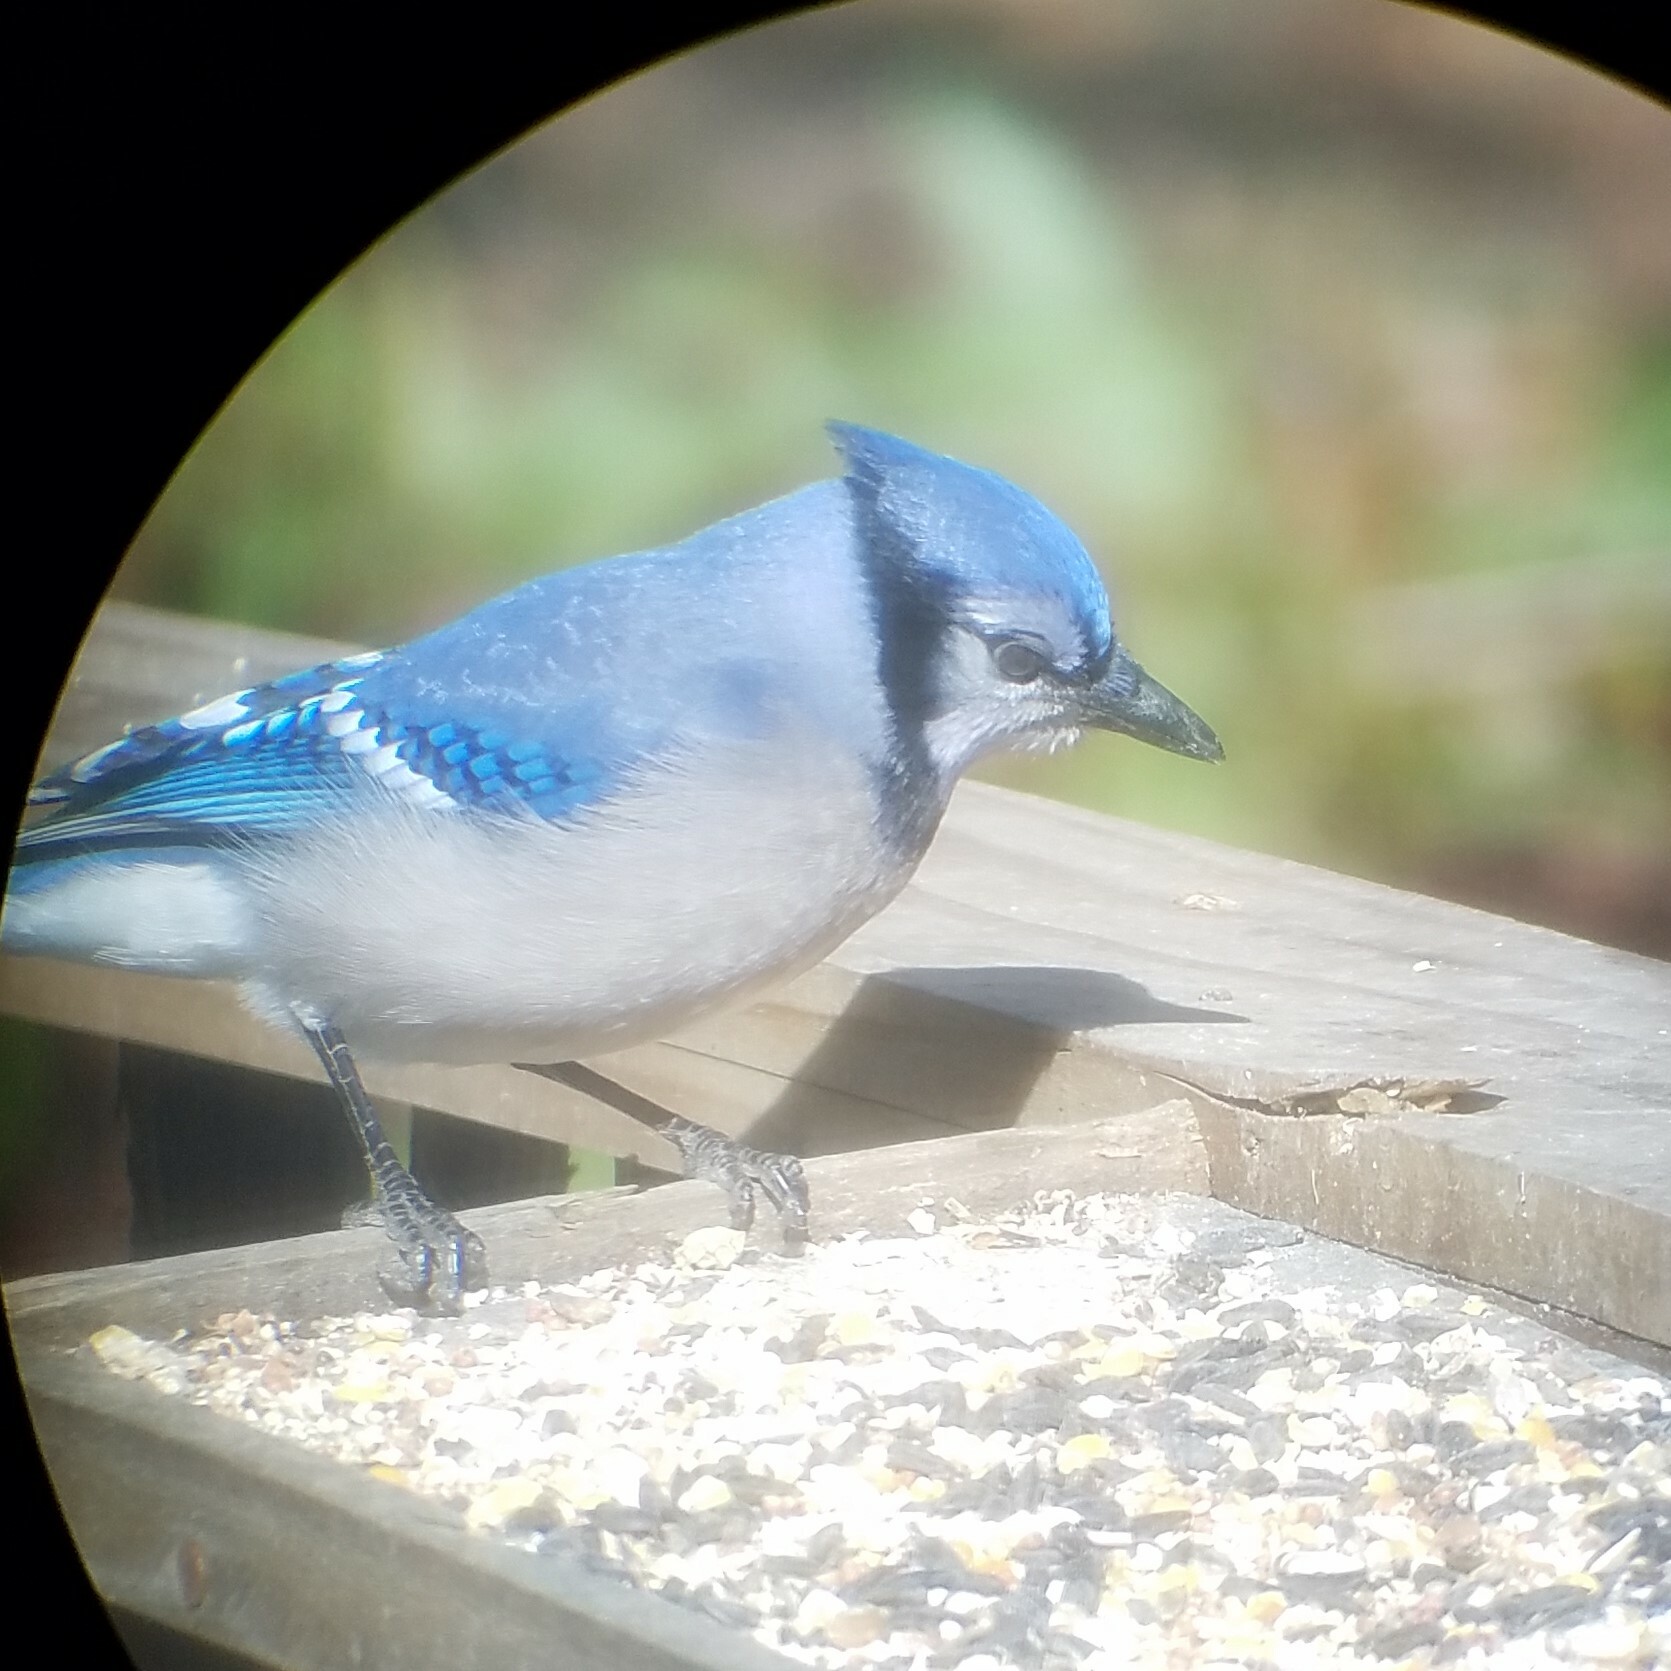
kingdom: Animalia
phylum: Chordata
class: Aves
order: Passeriformes
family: Corvidae
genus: Cyanocitta
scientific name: Cyanocitta cristata
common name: Blue jay
